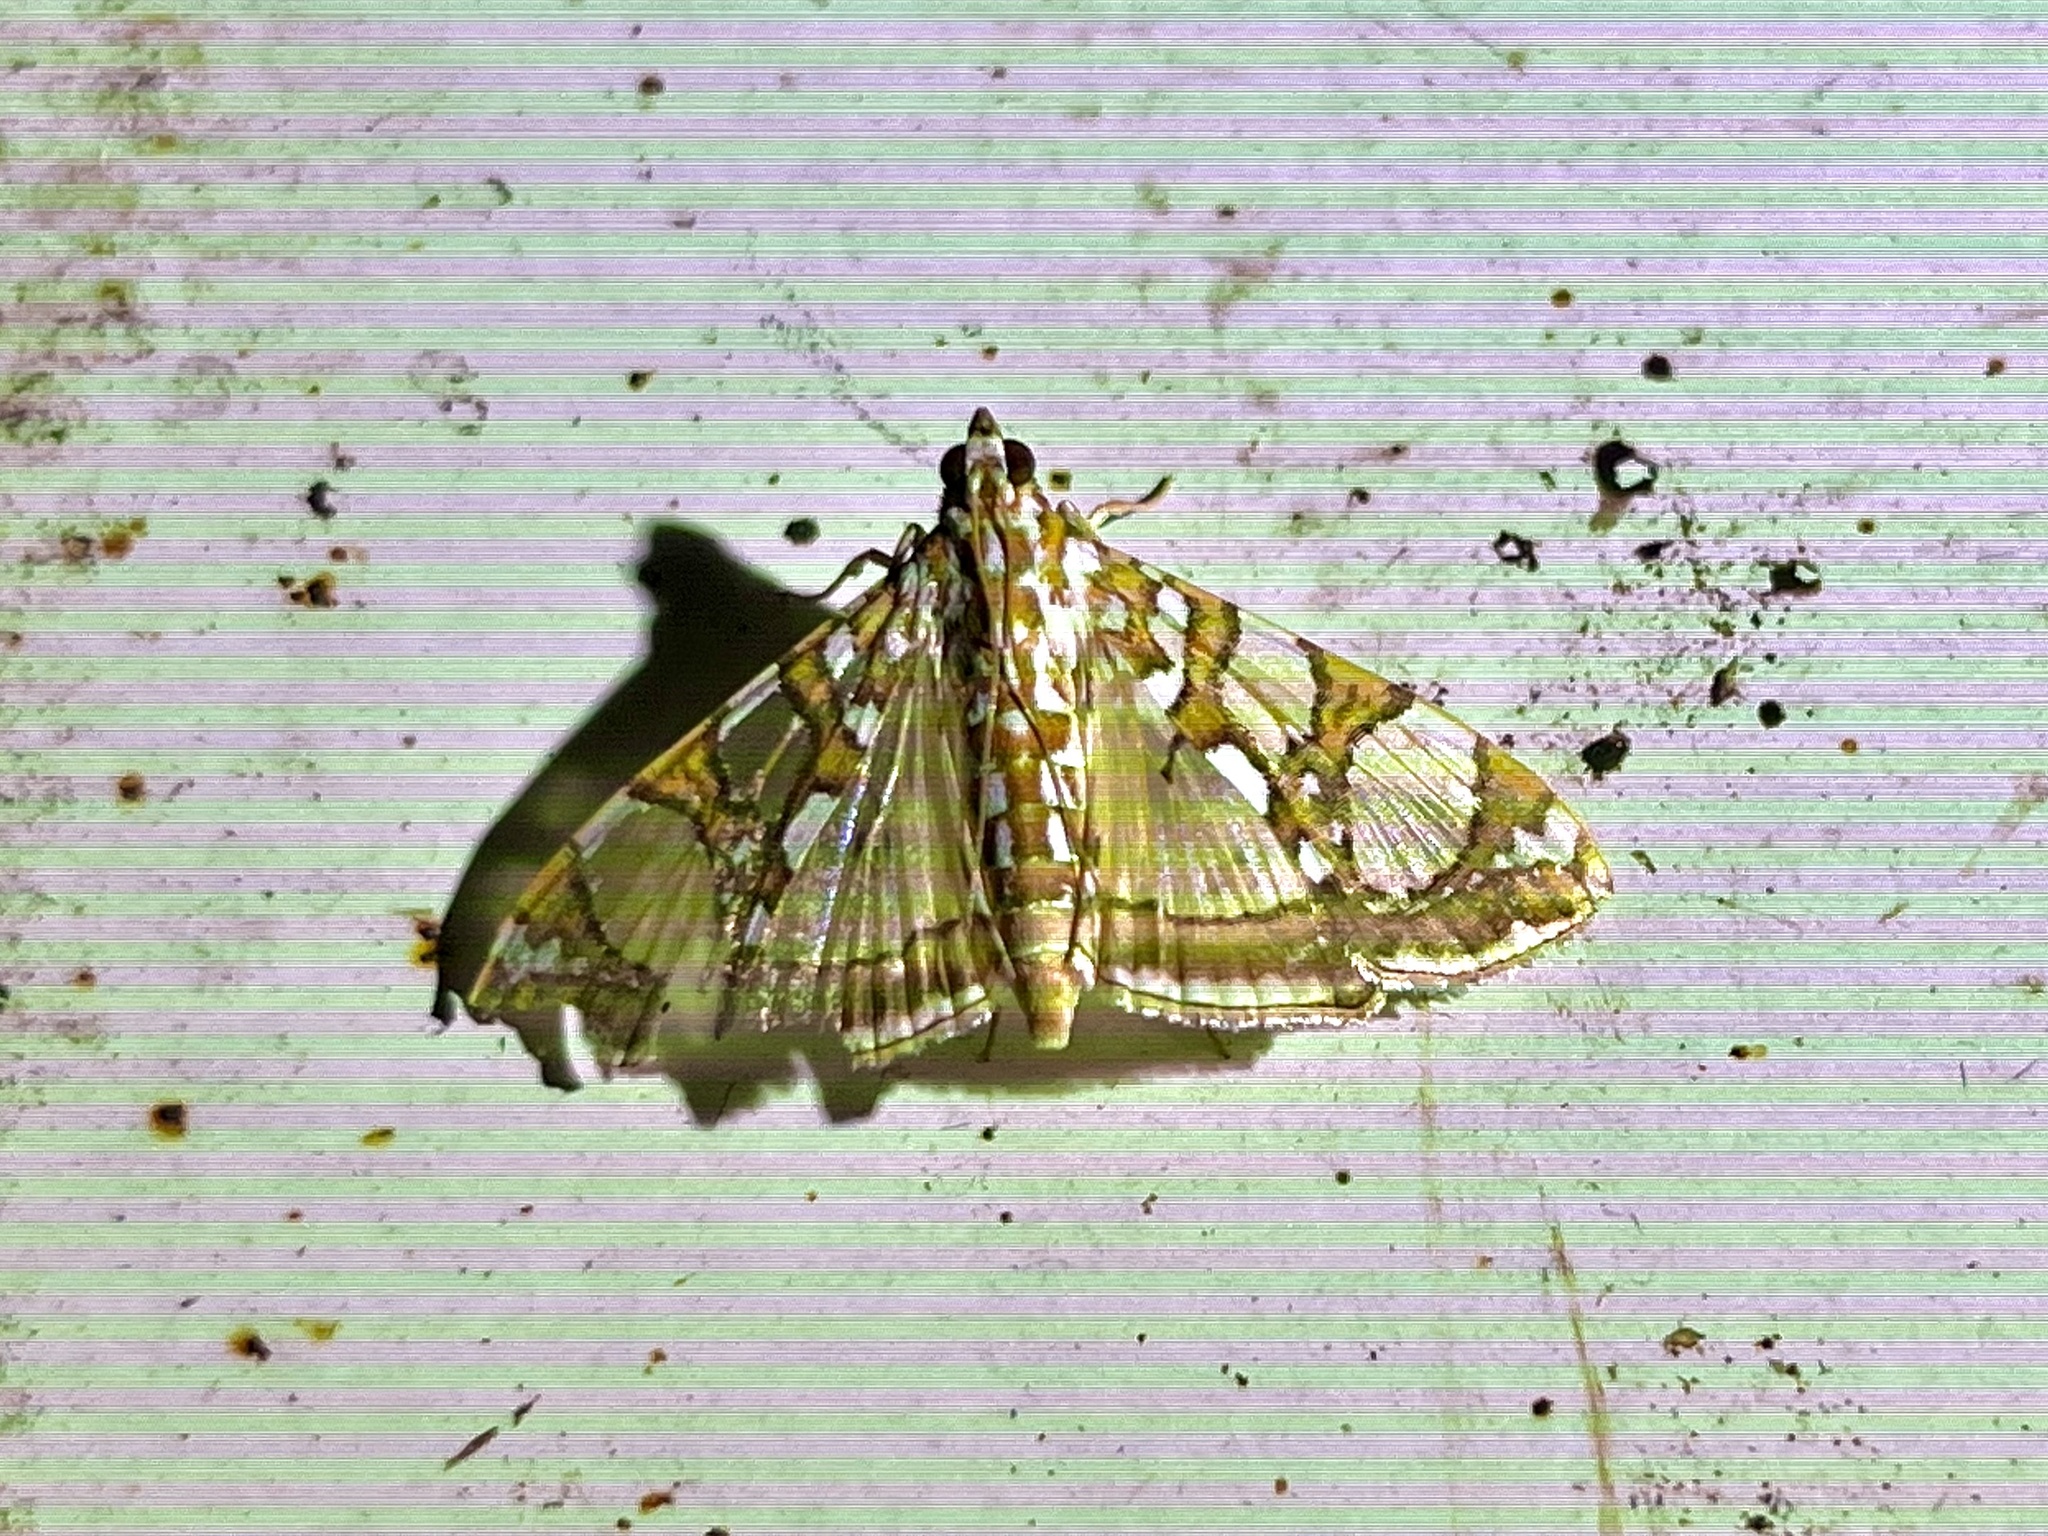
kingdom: Animalia
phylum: Arthropoda
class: Insecta
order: Lepidoptera
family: Crambidae
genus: Glyphodes
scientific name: Glyphodes sibillalis
